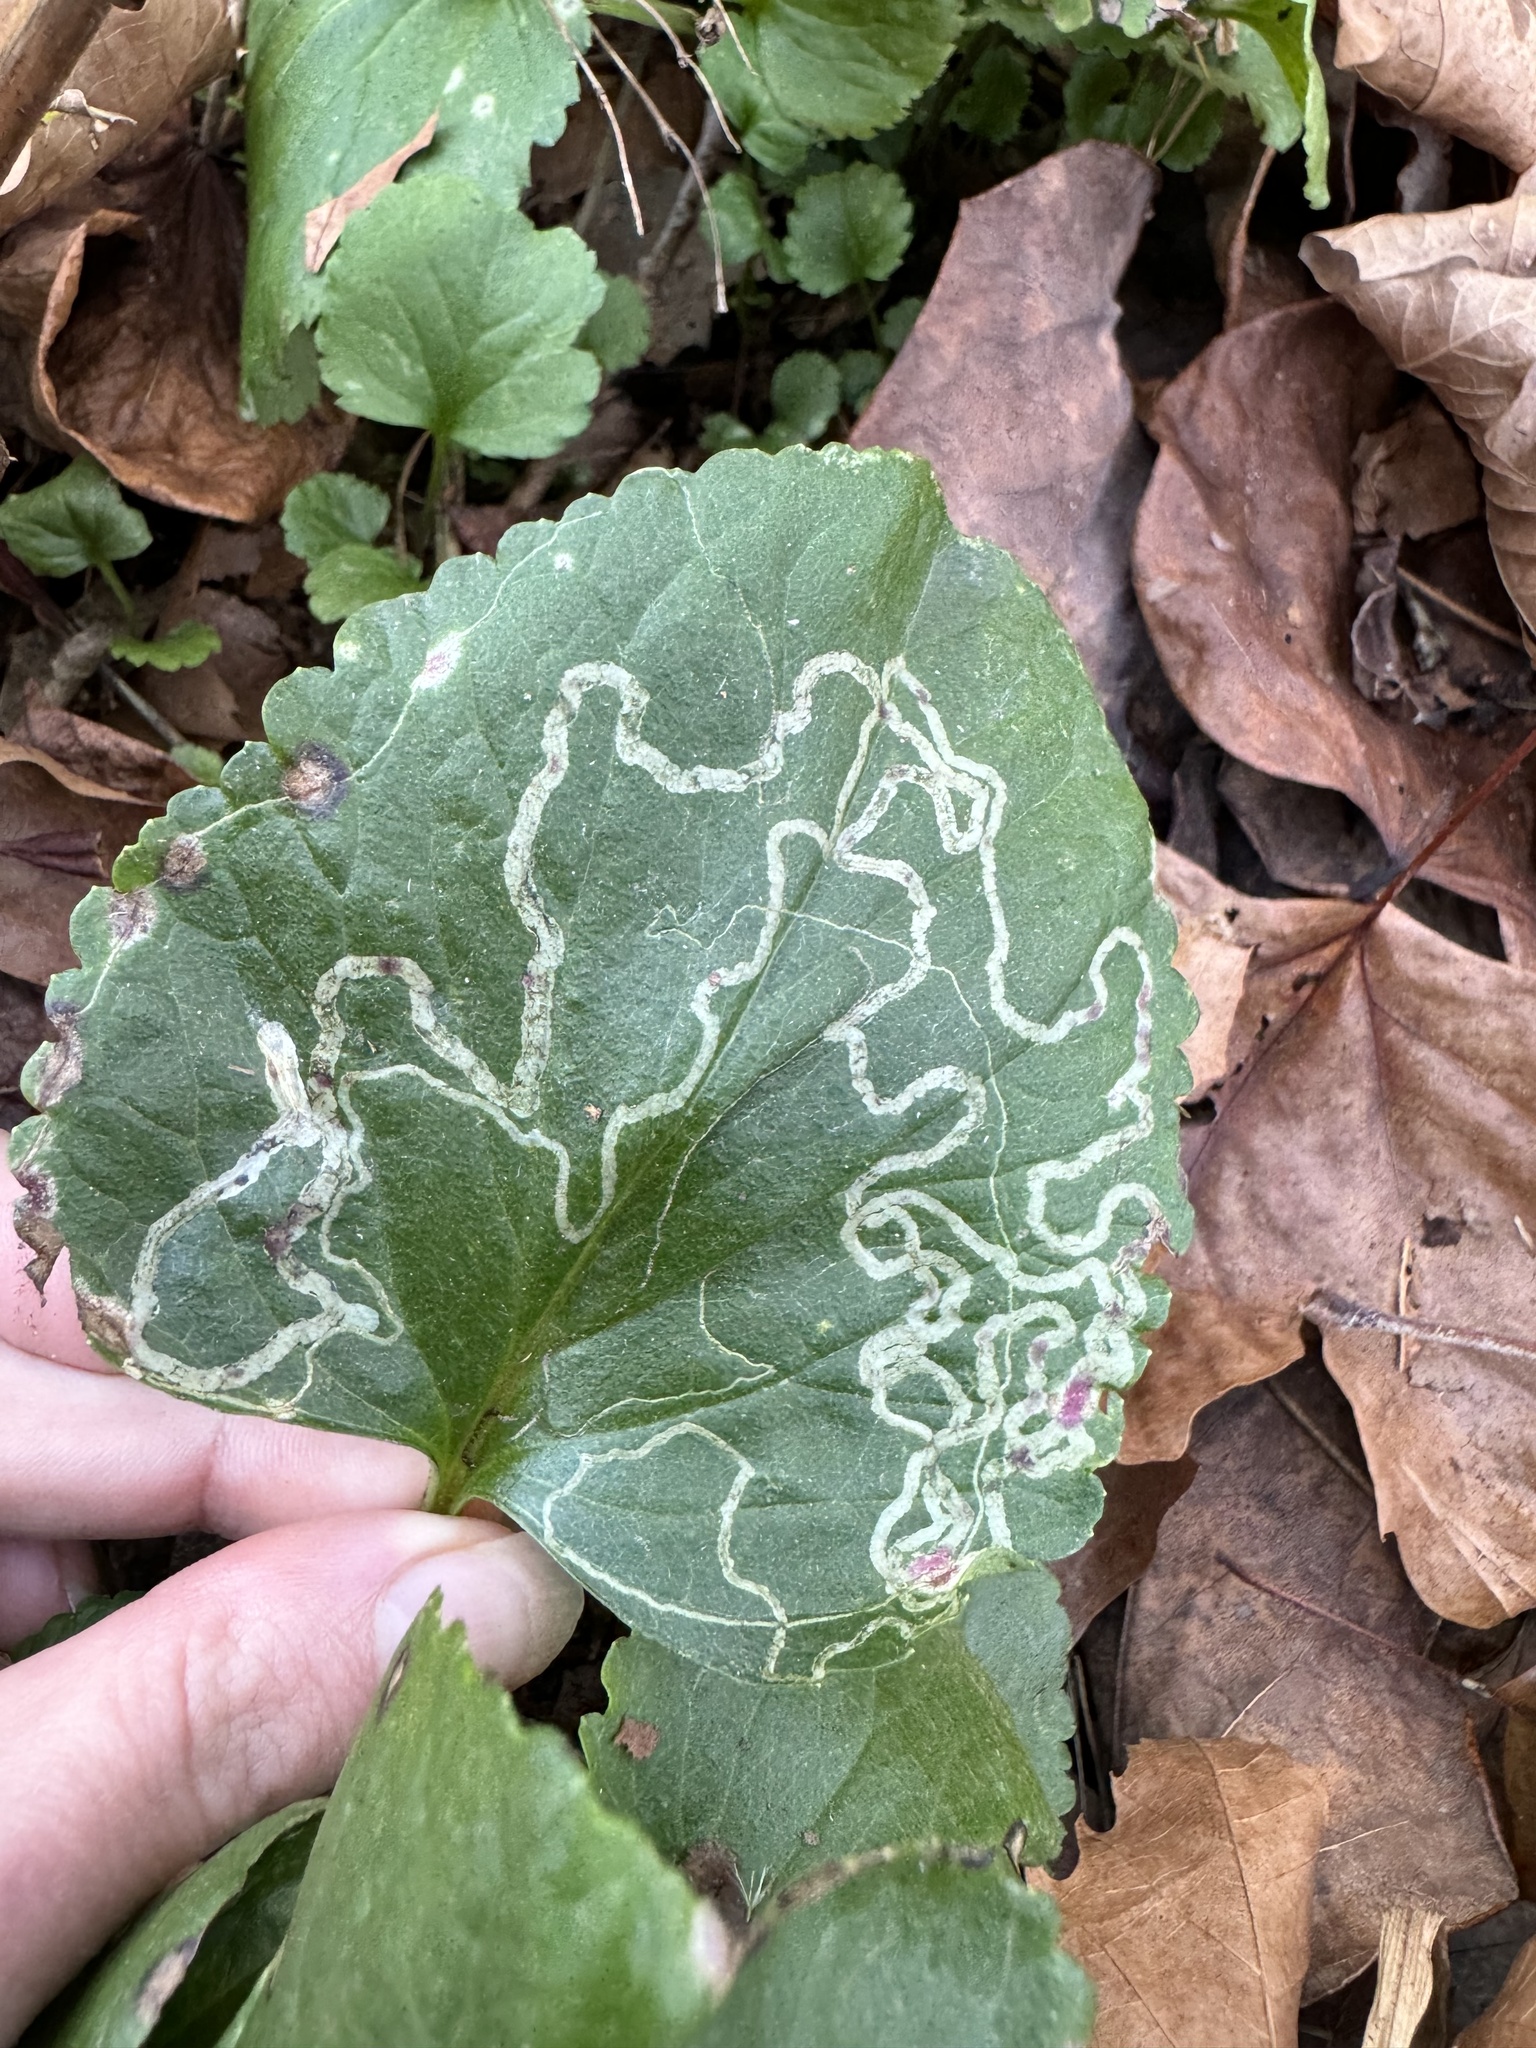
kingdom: Animalia
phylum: Arthropoda
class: Insecta
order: Lepidoptera
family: Gracillariidae
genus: Phyllocnistis
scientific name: Phyllocnistis insignis
